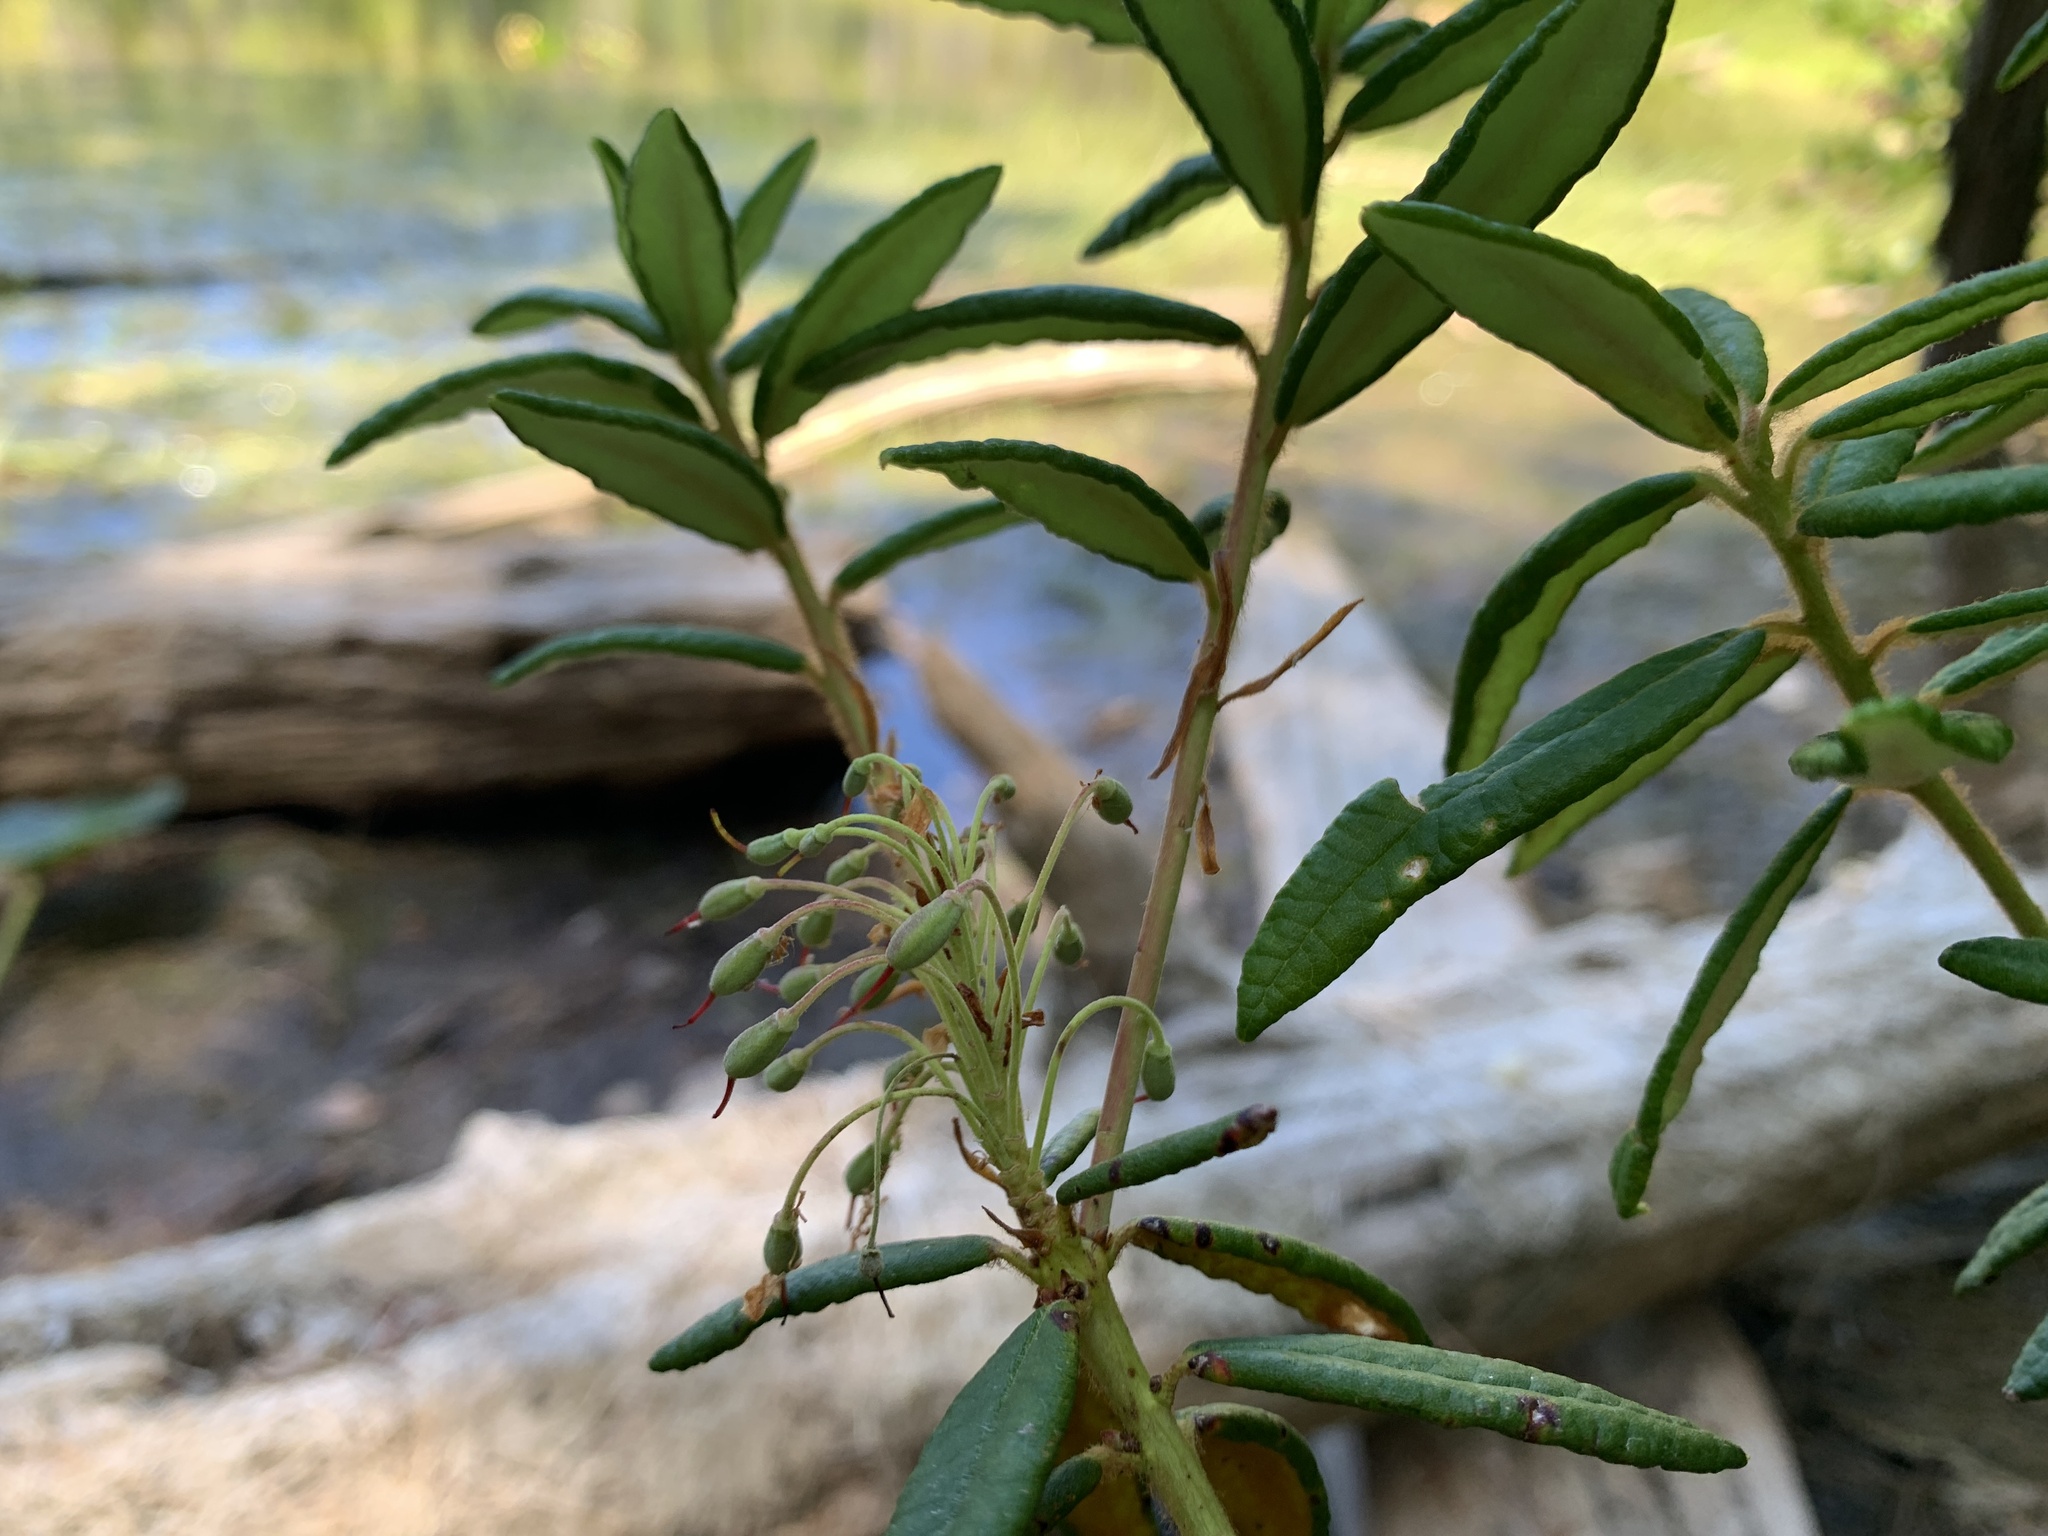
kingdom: Plantae
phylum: Tracheophyta
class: Magnoliopsida
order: Ericales
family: Ericaceae
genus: Rhododendron
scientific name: Rhododendron groenlandicum
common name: Bog labrador tea
